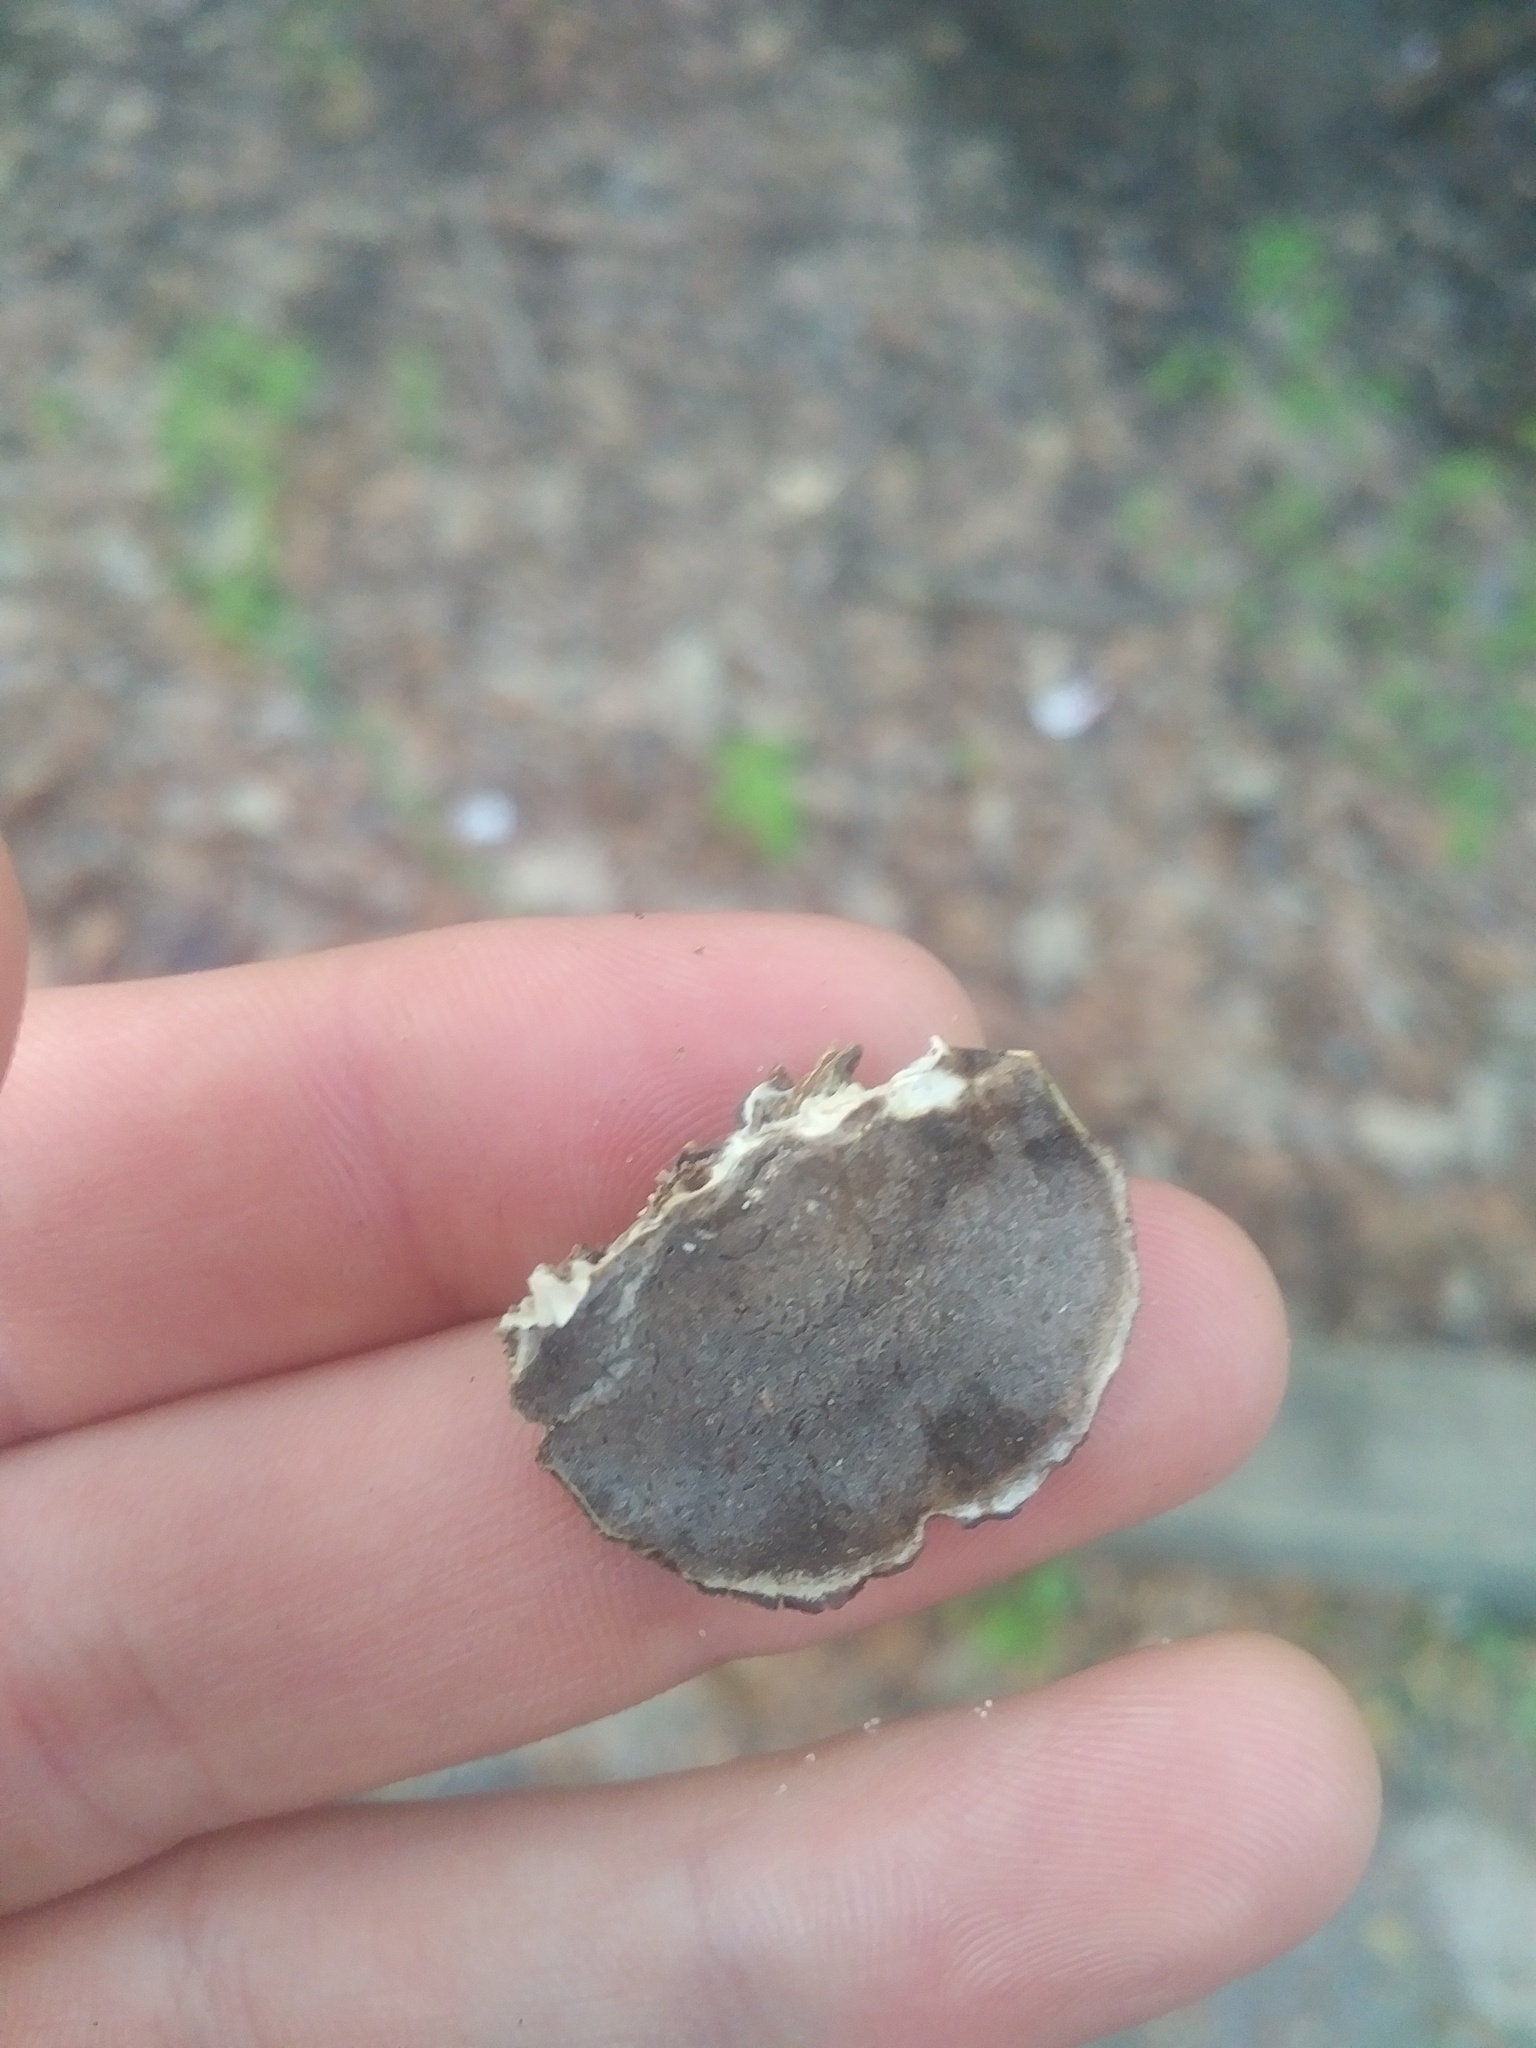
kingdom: Fungi
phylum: Basidiomycota
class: Agaricomycetes
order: Polyporales
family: Phanerochaetaceae
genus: Bjerkandera
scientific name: Bjerkandera adusta
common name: Smoky bracket
